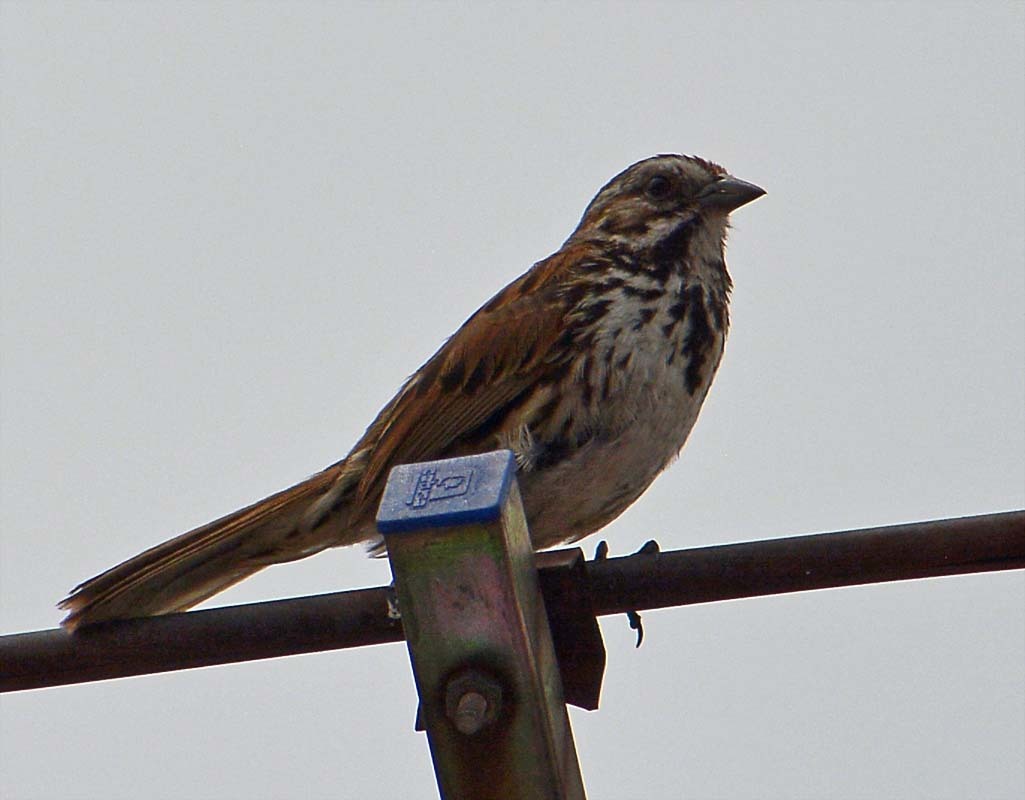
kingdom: Animalia
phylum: Chordata
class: Aves
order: Passeriformes
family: Passerellidae
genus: Melospiza
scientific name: Melospiza melodia
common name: Song sparrow
